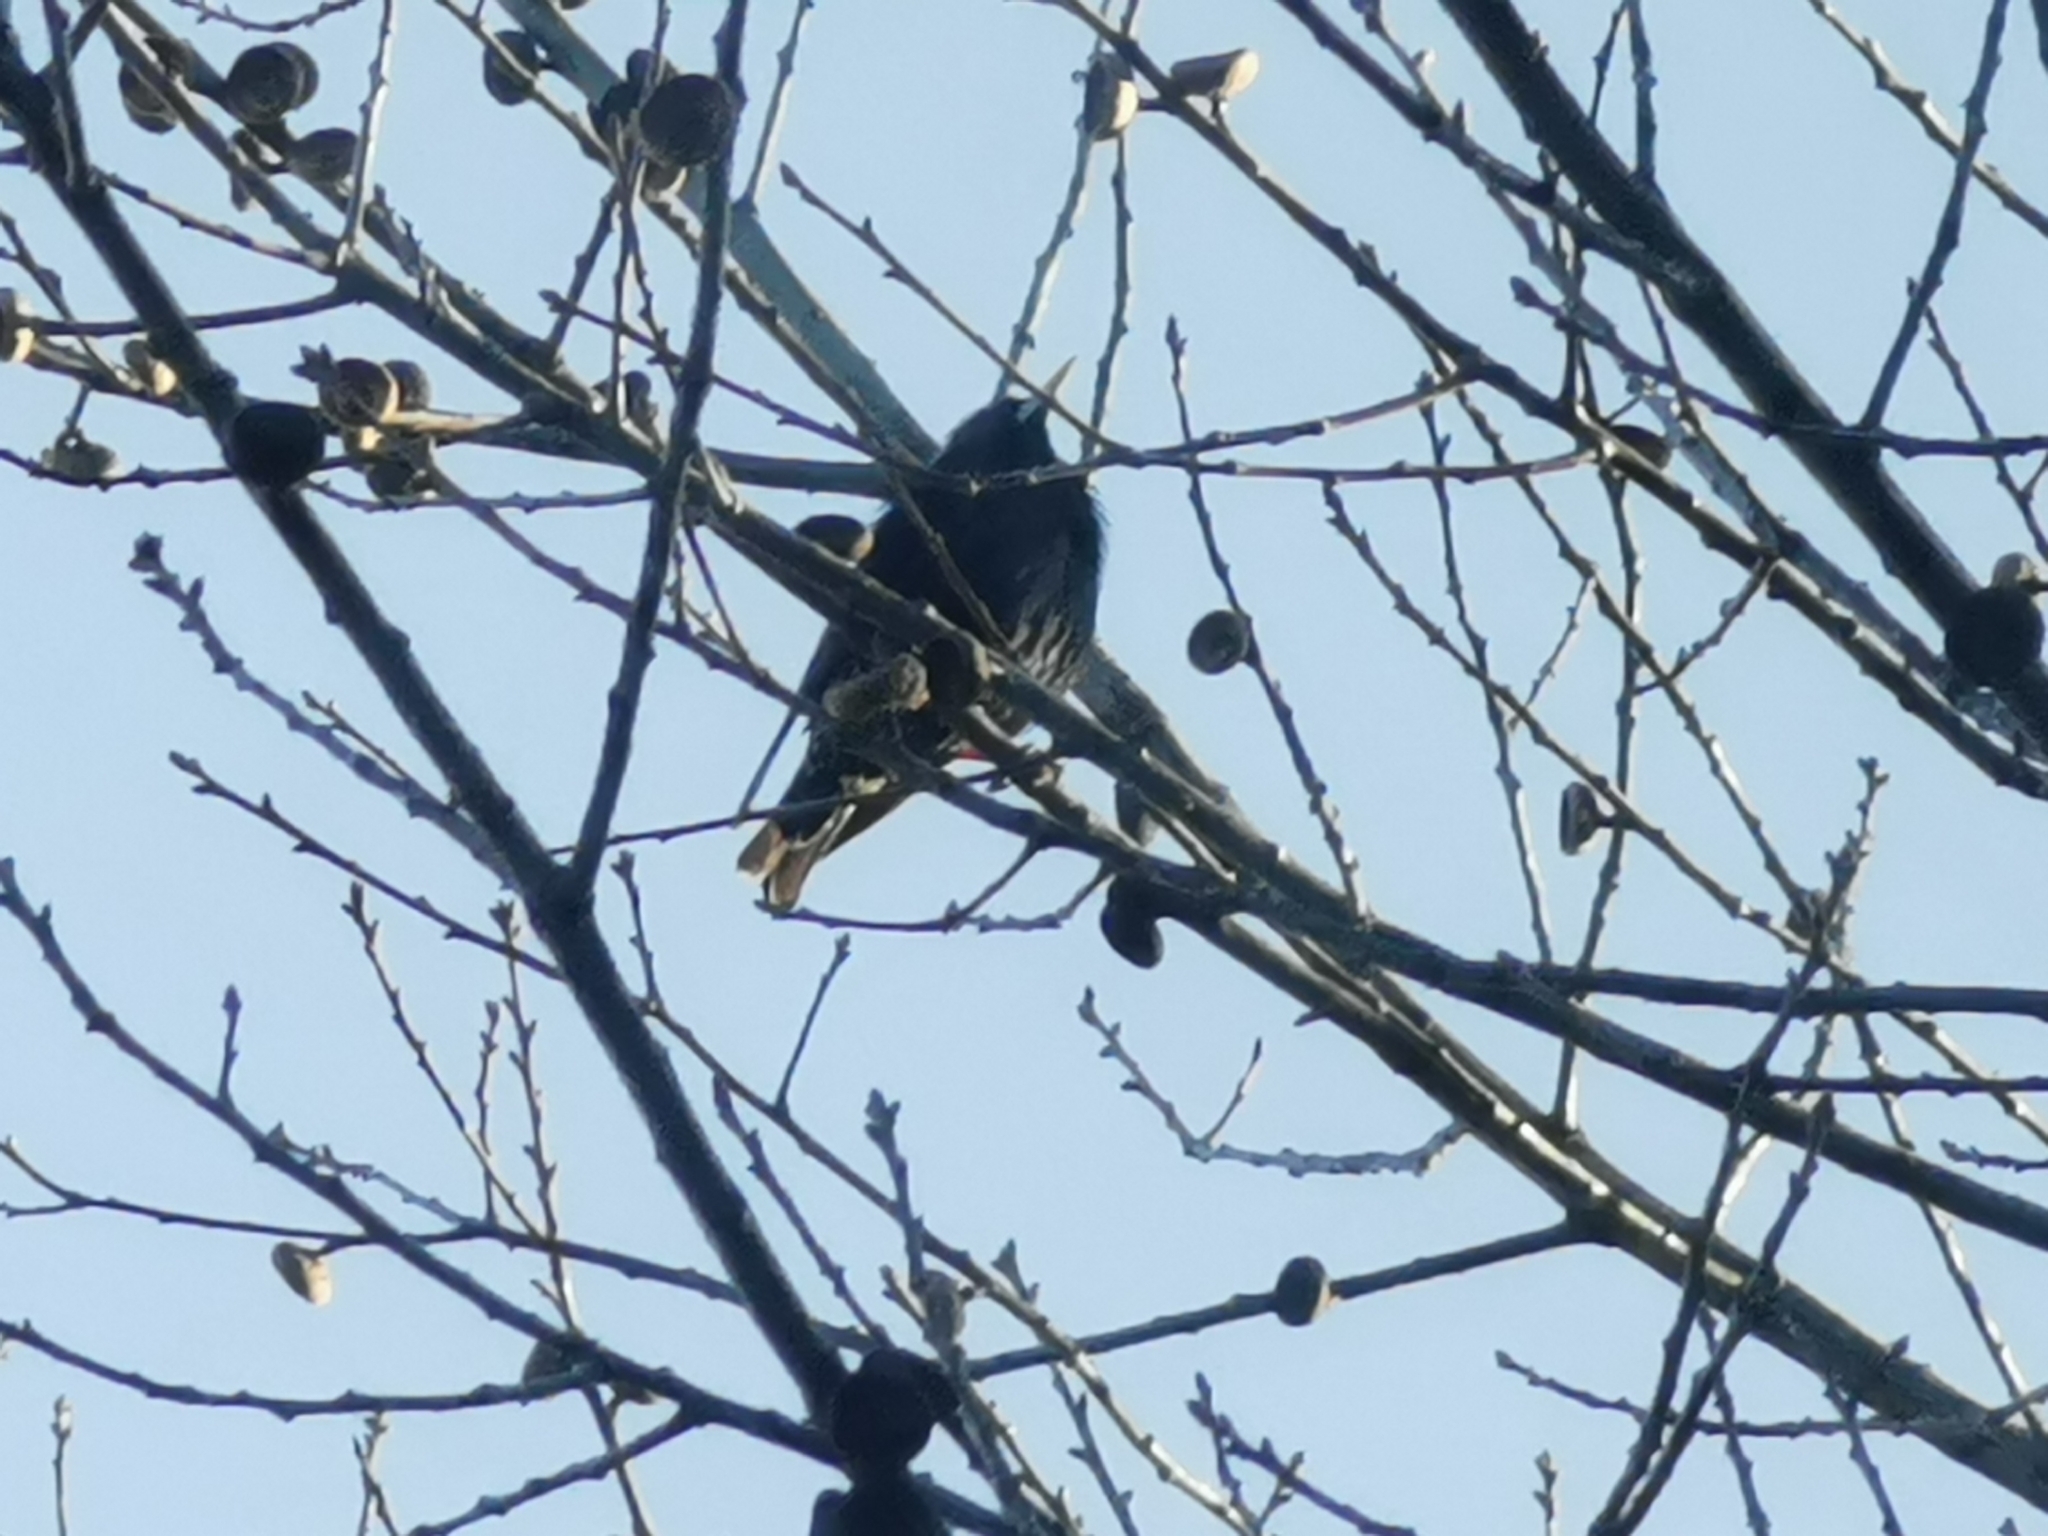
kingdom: Animalia
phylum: Chordata
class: Aves
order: Passeriformes
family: Sturnidae
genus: Sturnus
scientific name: Sturnus vulgaris
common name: Common starling
